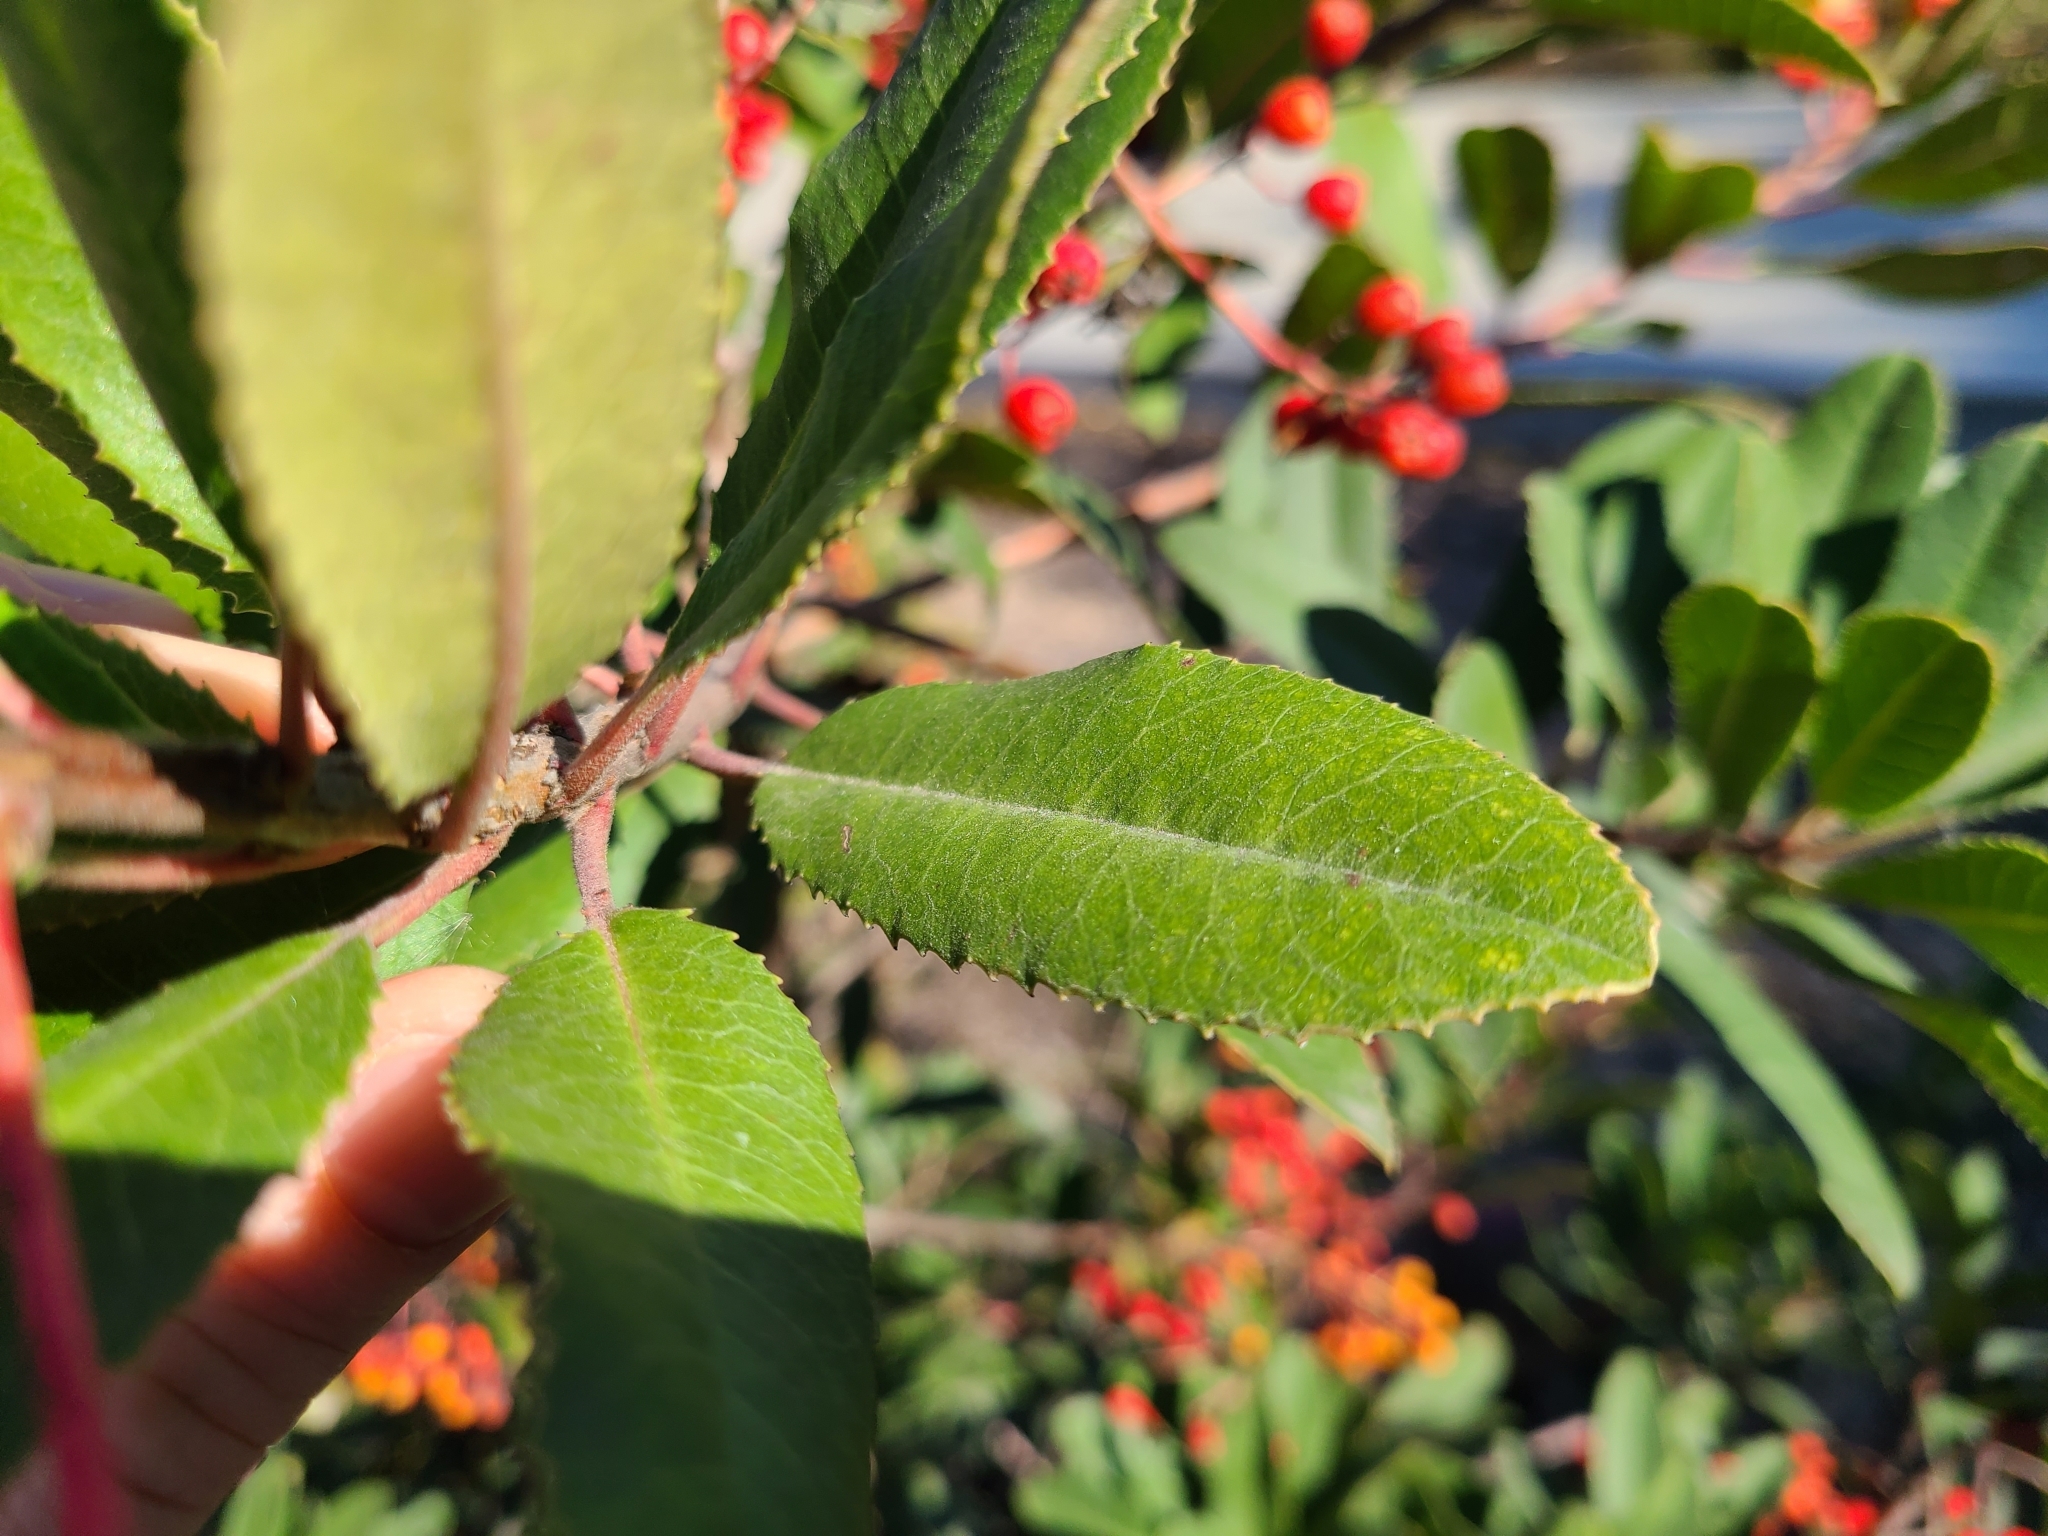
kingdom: Plantae
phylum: Tracheophyta
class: Magnoliopsida
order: Rosales
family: Rosaceae
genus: Heteromeles
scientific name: Heteromeles arbutifolia
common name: California-holly
